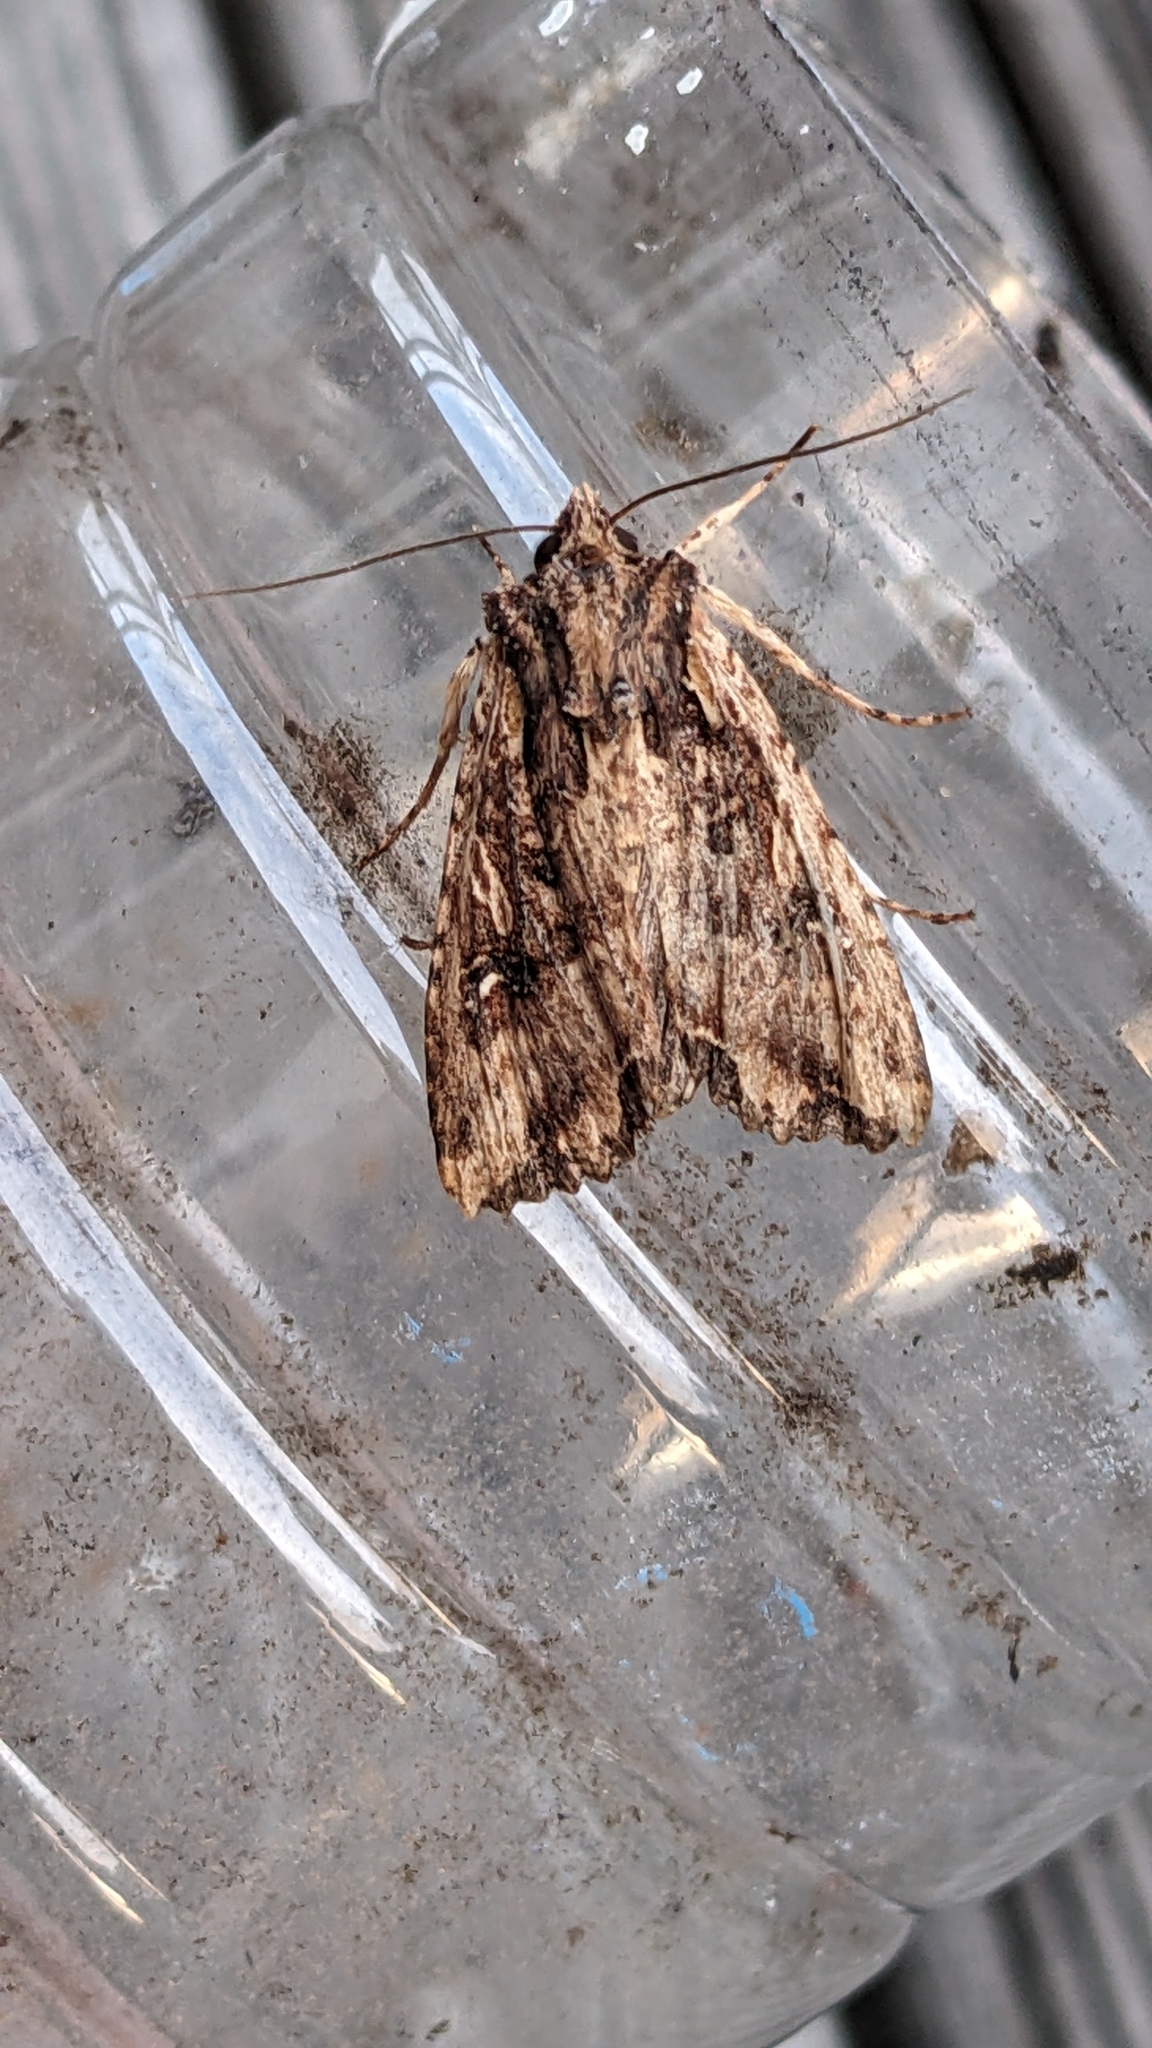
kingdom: Animalia
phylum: Arthropoda
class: Insecta
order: Lepidoptera
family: Noctuidae
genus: Meterana
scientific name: Meterana stipata
